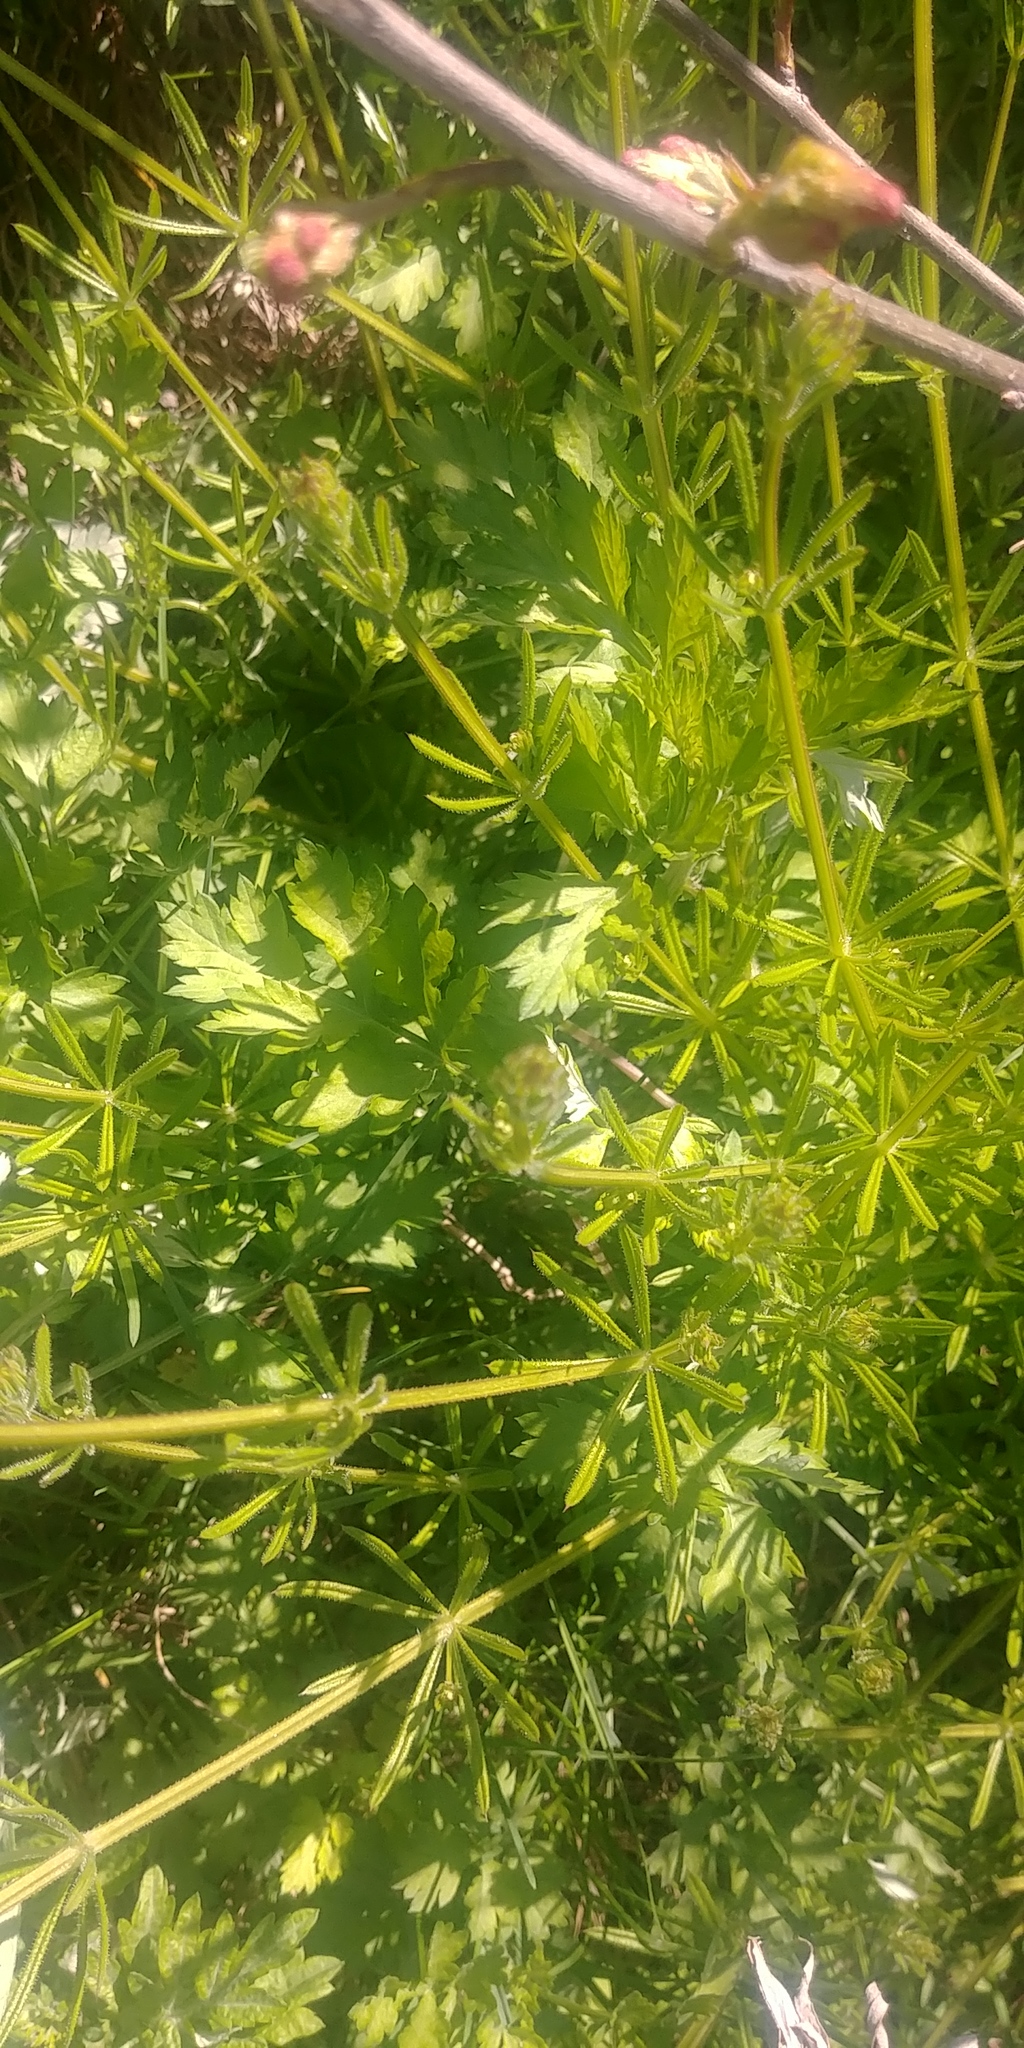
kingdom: Plantae
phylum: Tracheophyta
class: Magnoliopsida
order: Gentianales
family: Rubiaceae
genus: Galium
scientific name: Galium aparine
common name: Cleavers
